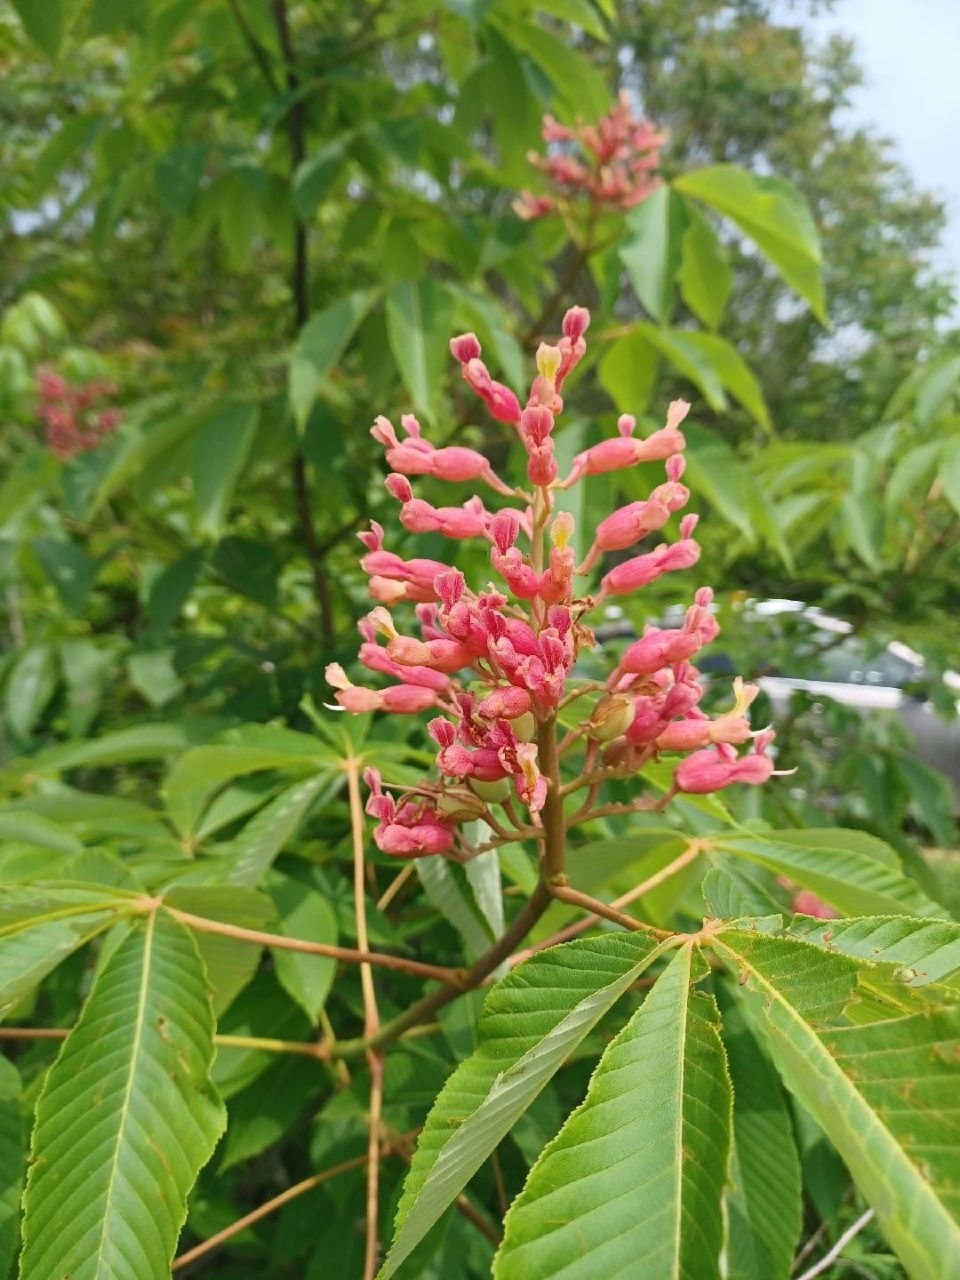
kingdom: Plantae
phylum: Tracheophyta
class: Magnoliopsida
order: Sapindales
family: Sapindaceae
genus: Aesculus
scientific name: Aesculus pavia
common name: Red buckeye
